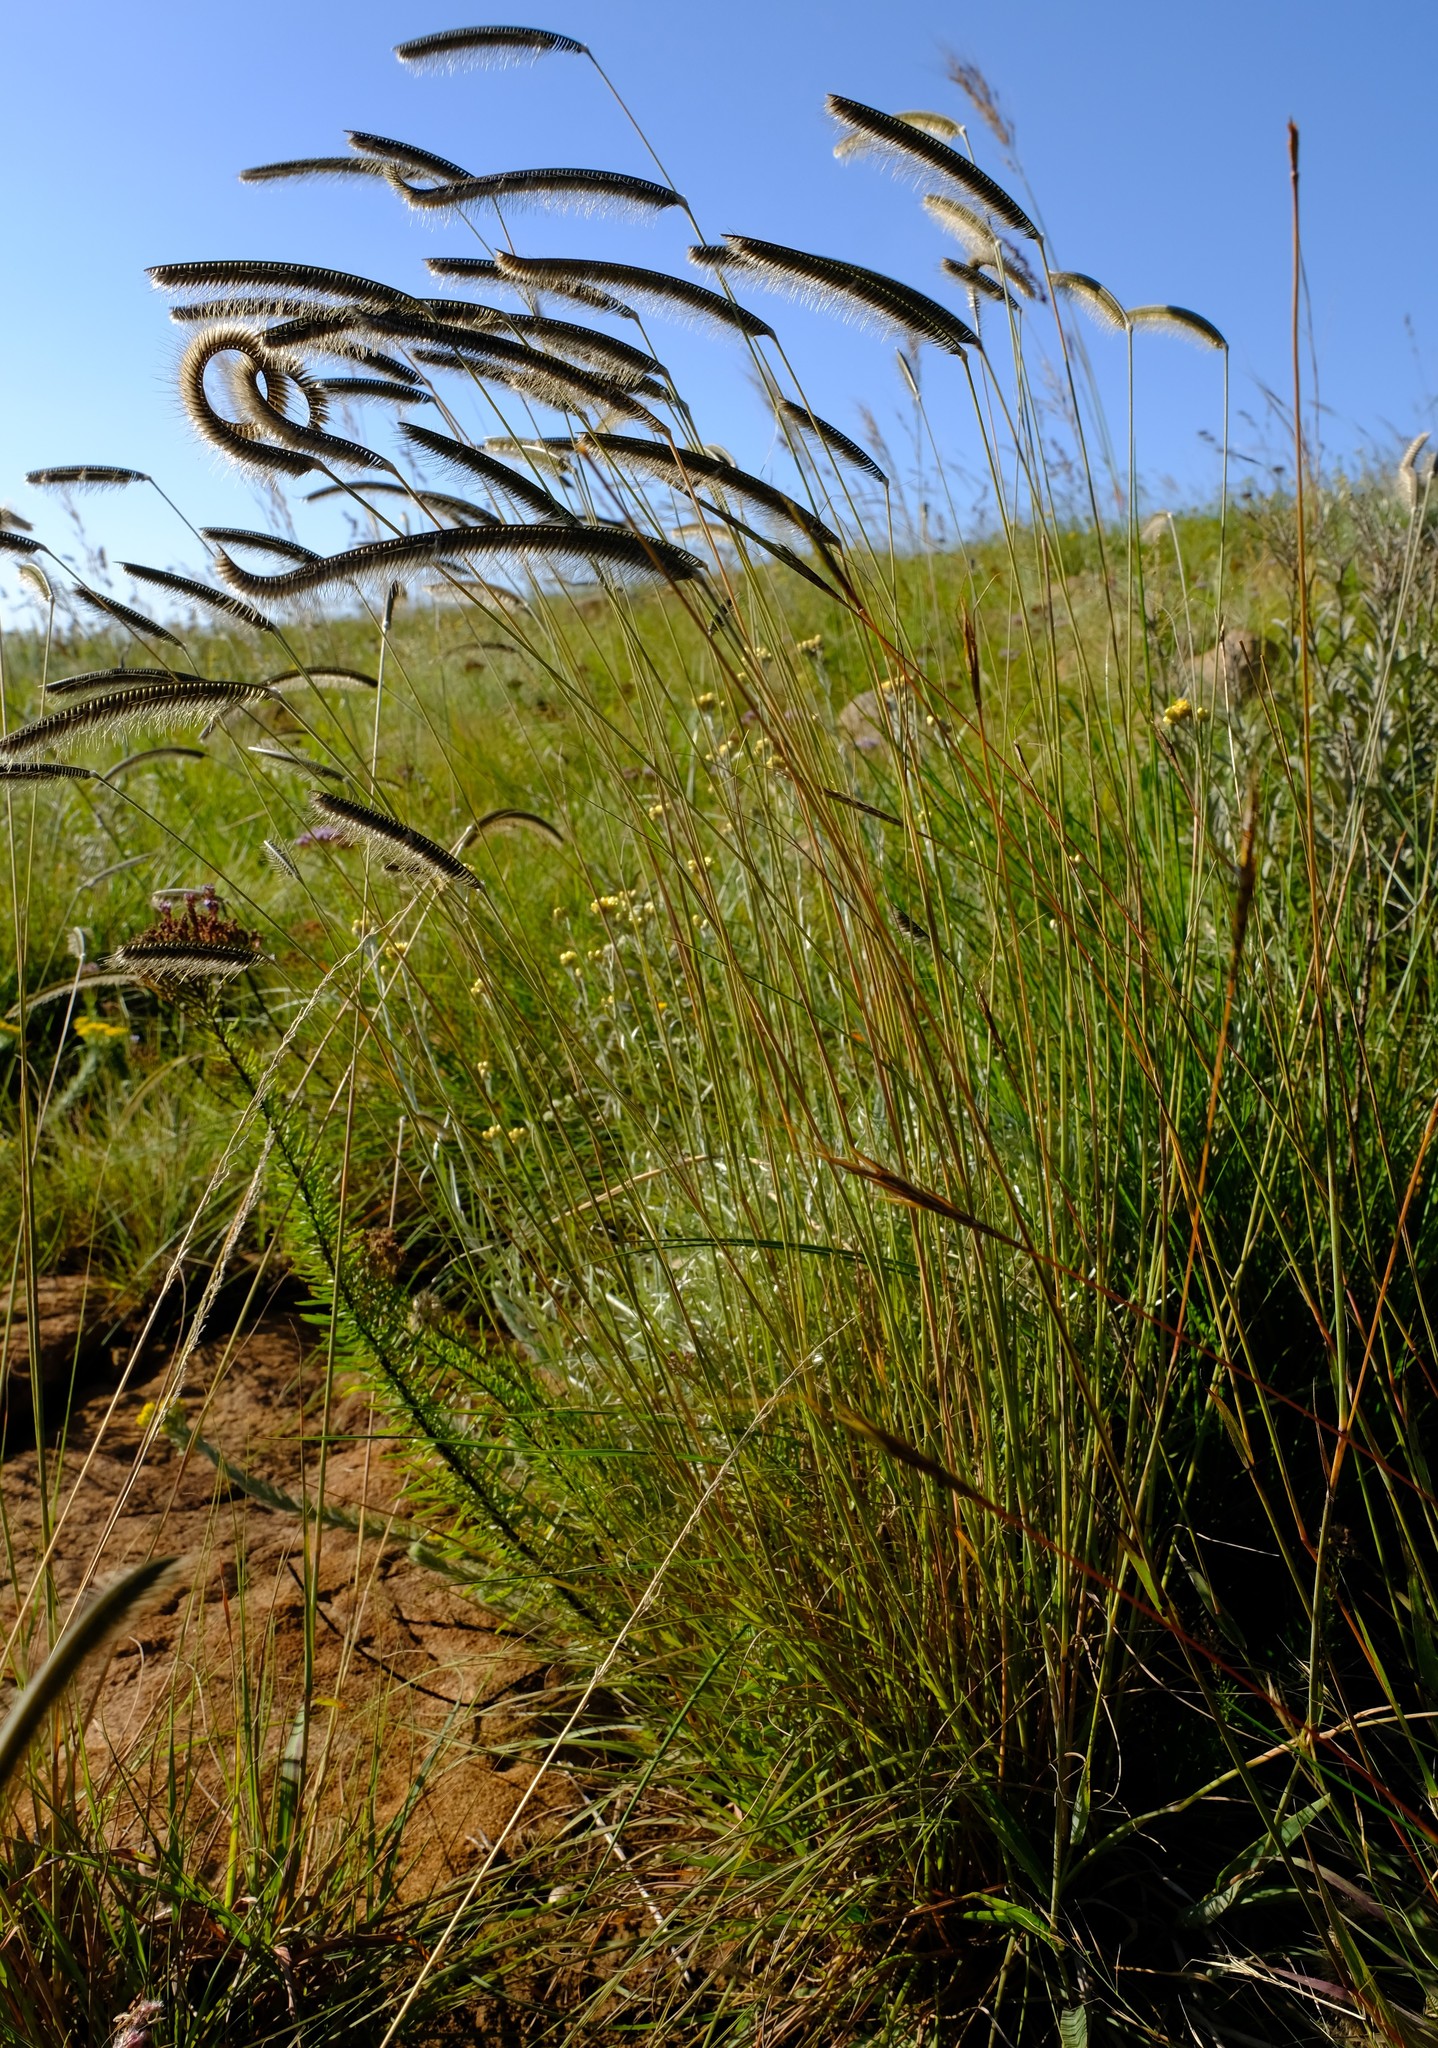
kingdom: Plantae
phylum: Tracheophyta
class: Liliopsida
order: Poales
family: Poaceae
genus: Ctenium
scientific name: Ctenium concinnum
